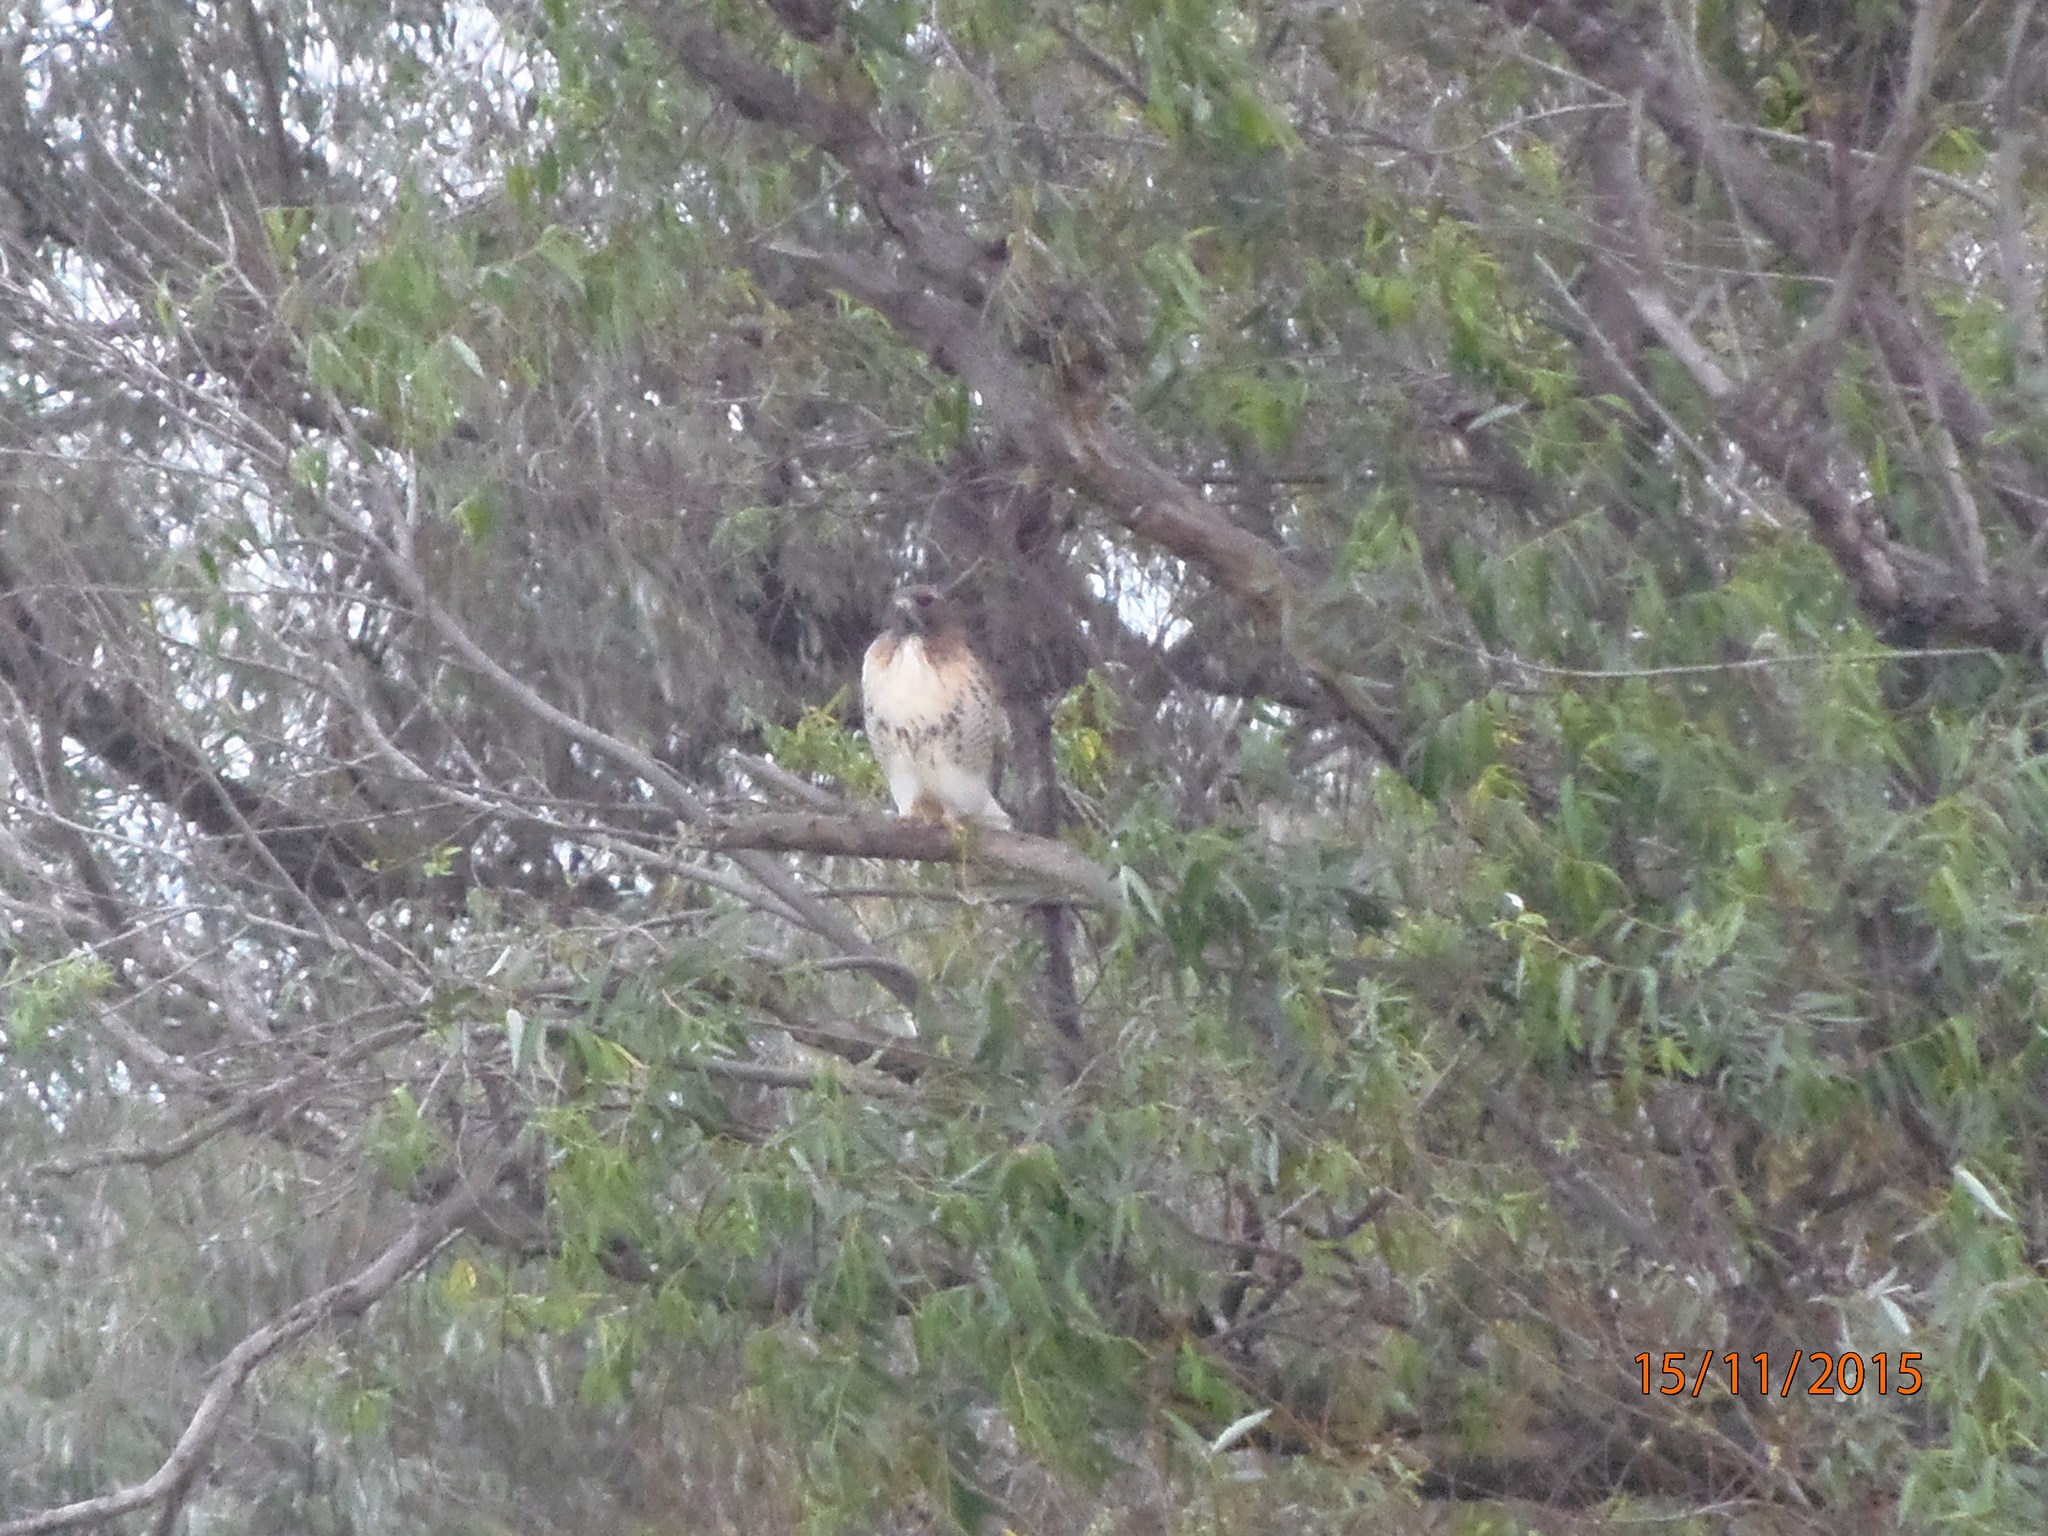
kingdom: Animalia
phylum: Chordata
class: Aves
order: Accipitriformes
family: Accipitridae
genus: Buteo
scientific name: Buteo jamaicensis
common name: Red-tailed hawk
